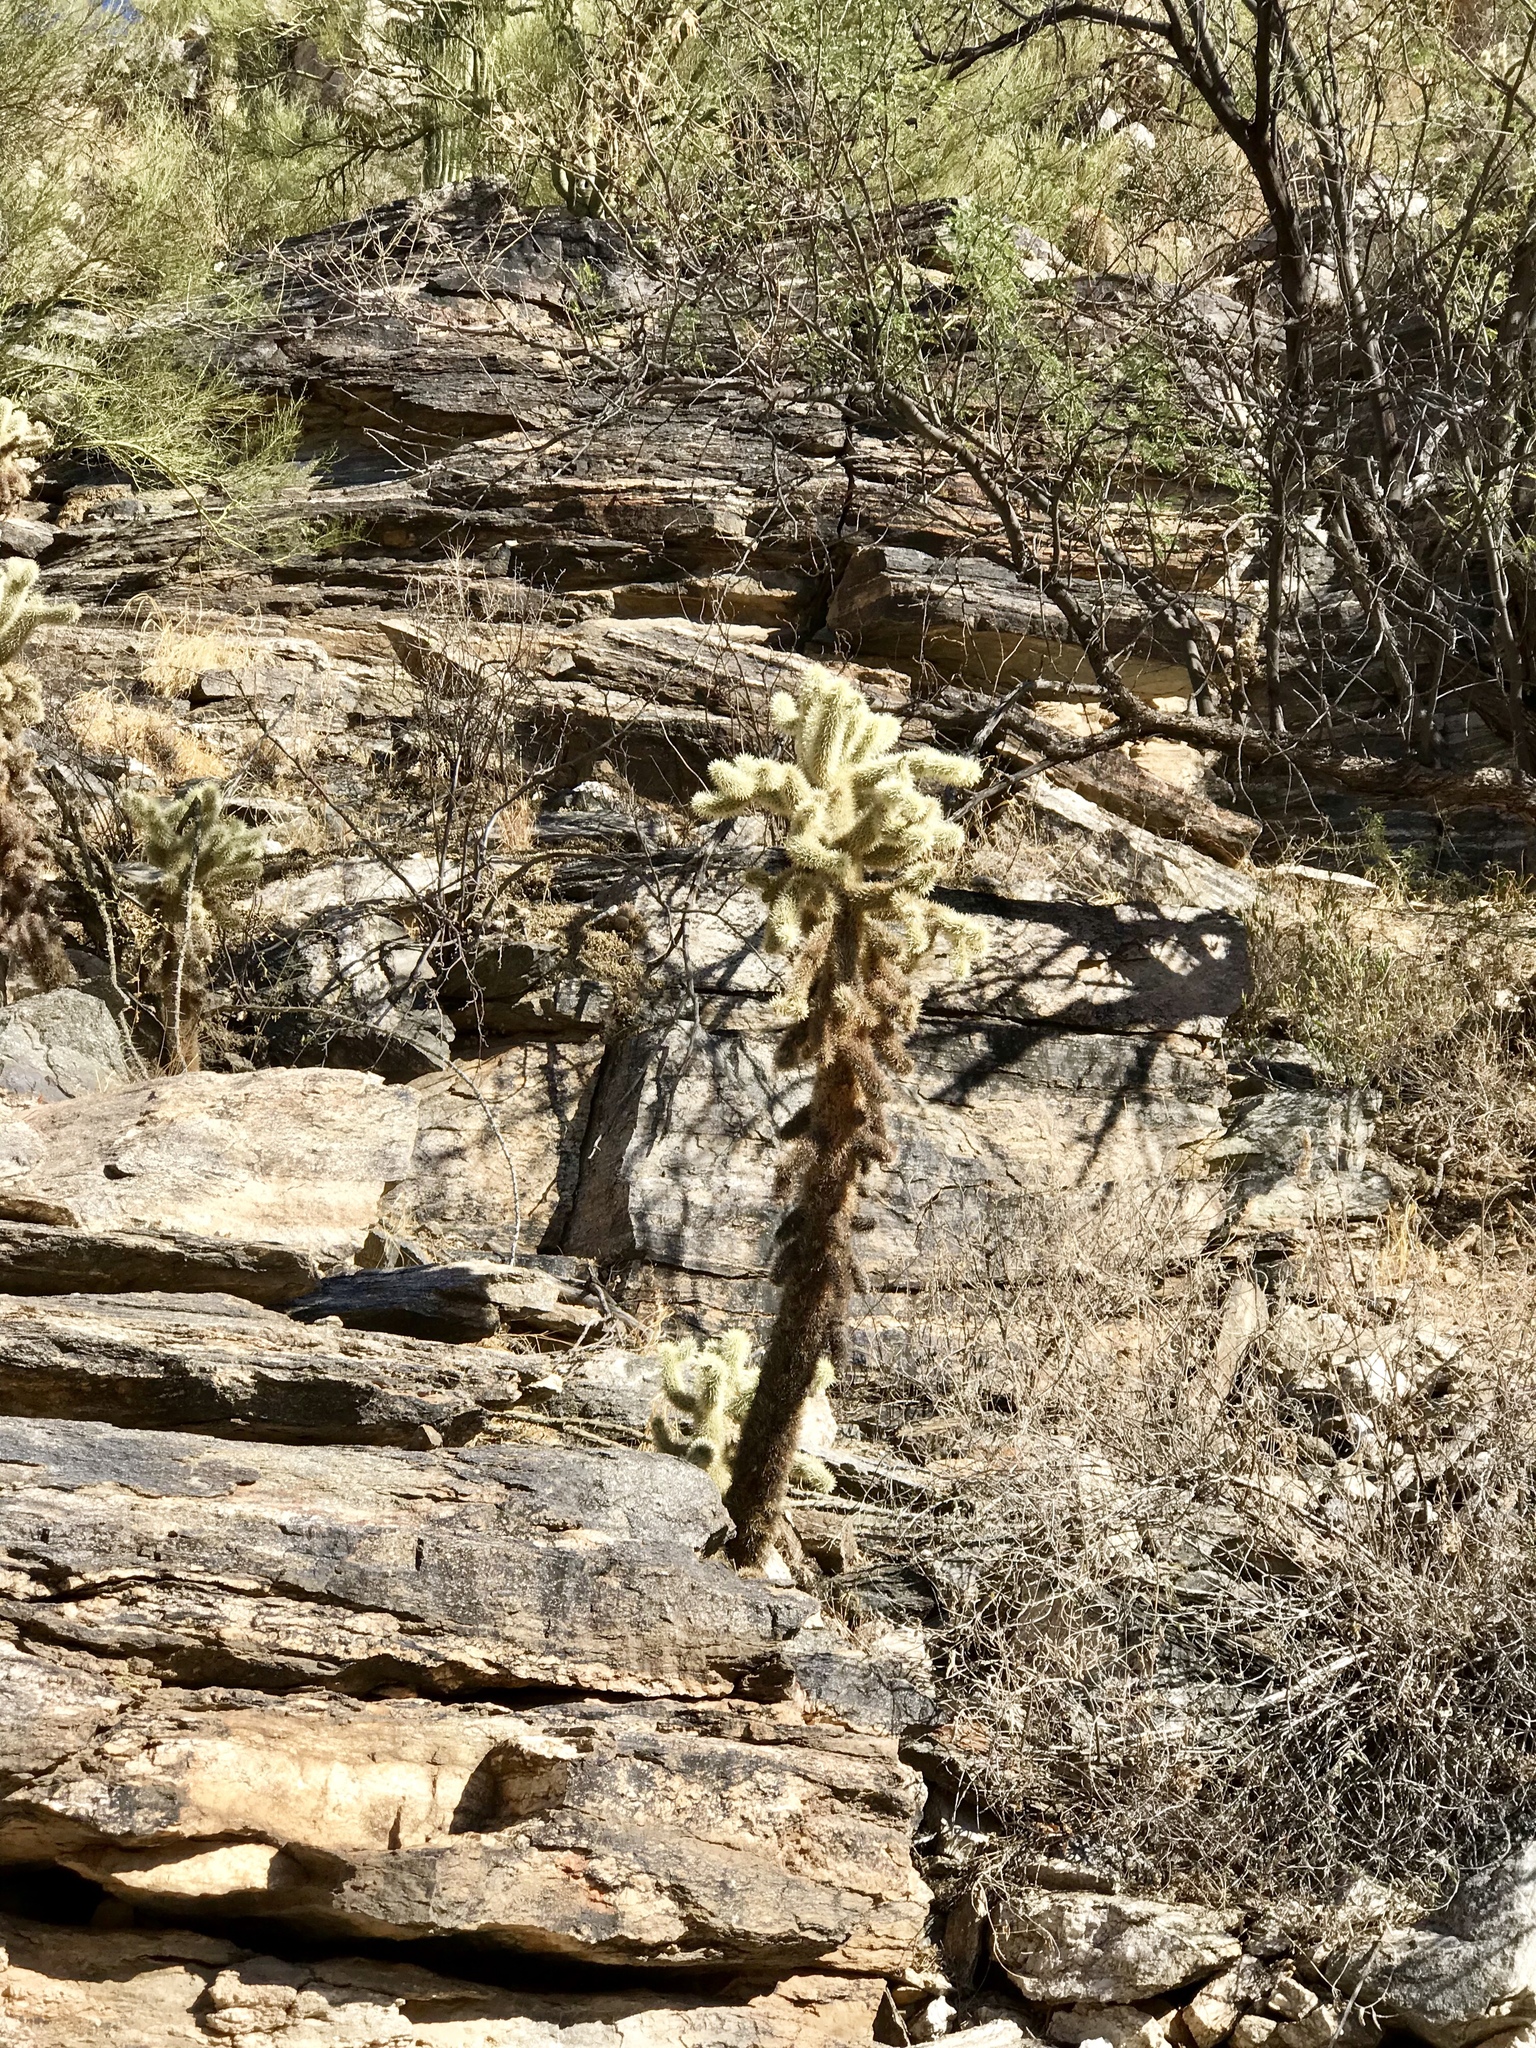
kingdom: Plantae
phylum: Tracheophyta
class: Magnoliopsida
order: Caryophyllales
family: Cactaceae
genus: Cylindropuntia
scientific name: Cylindropuntia fosbergii
